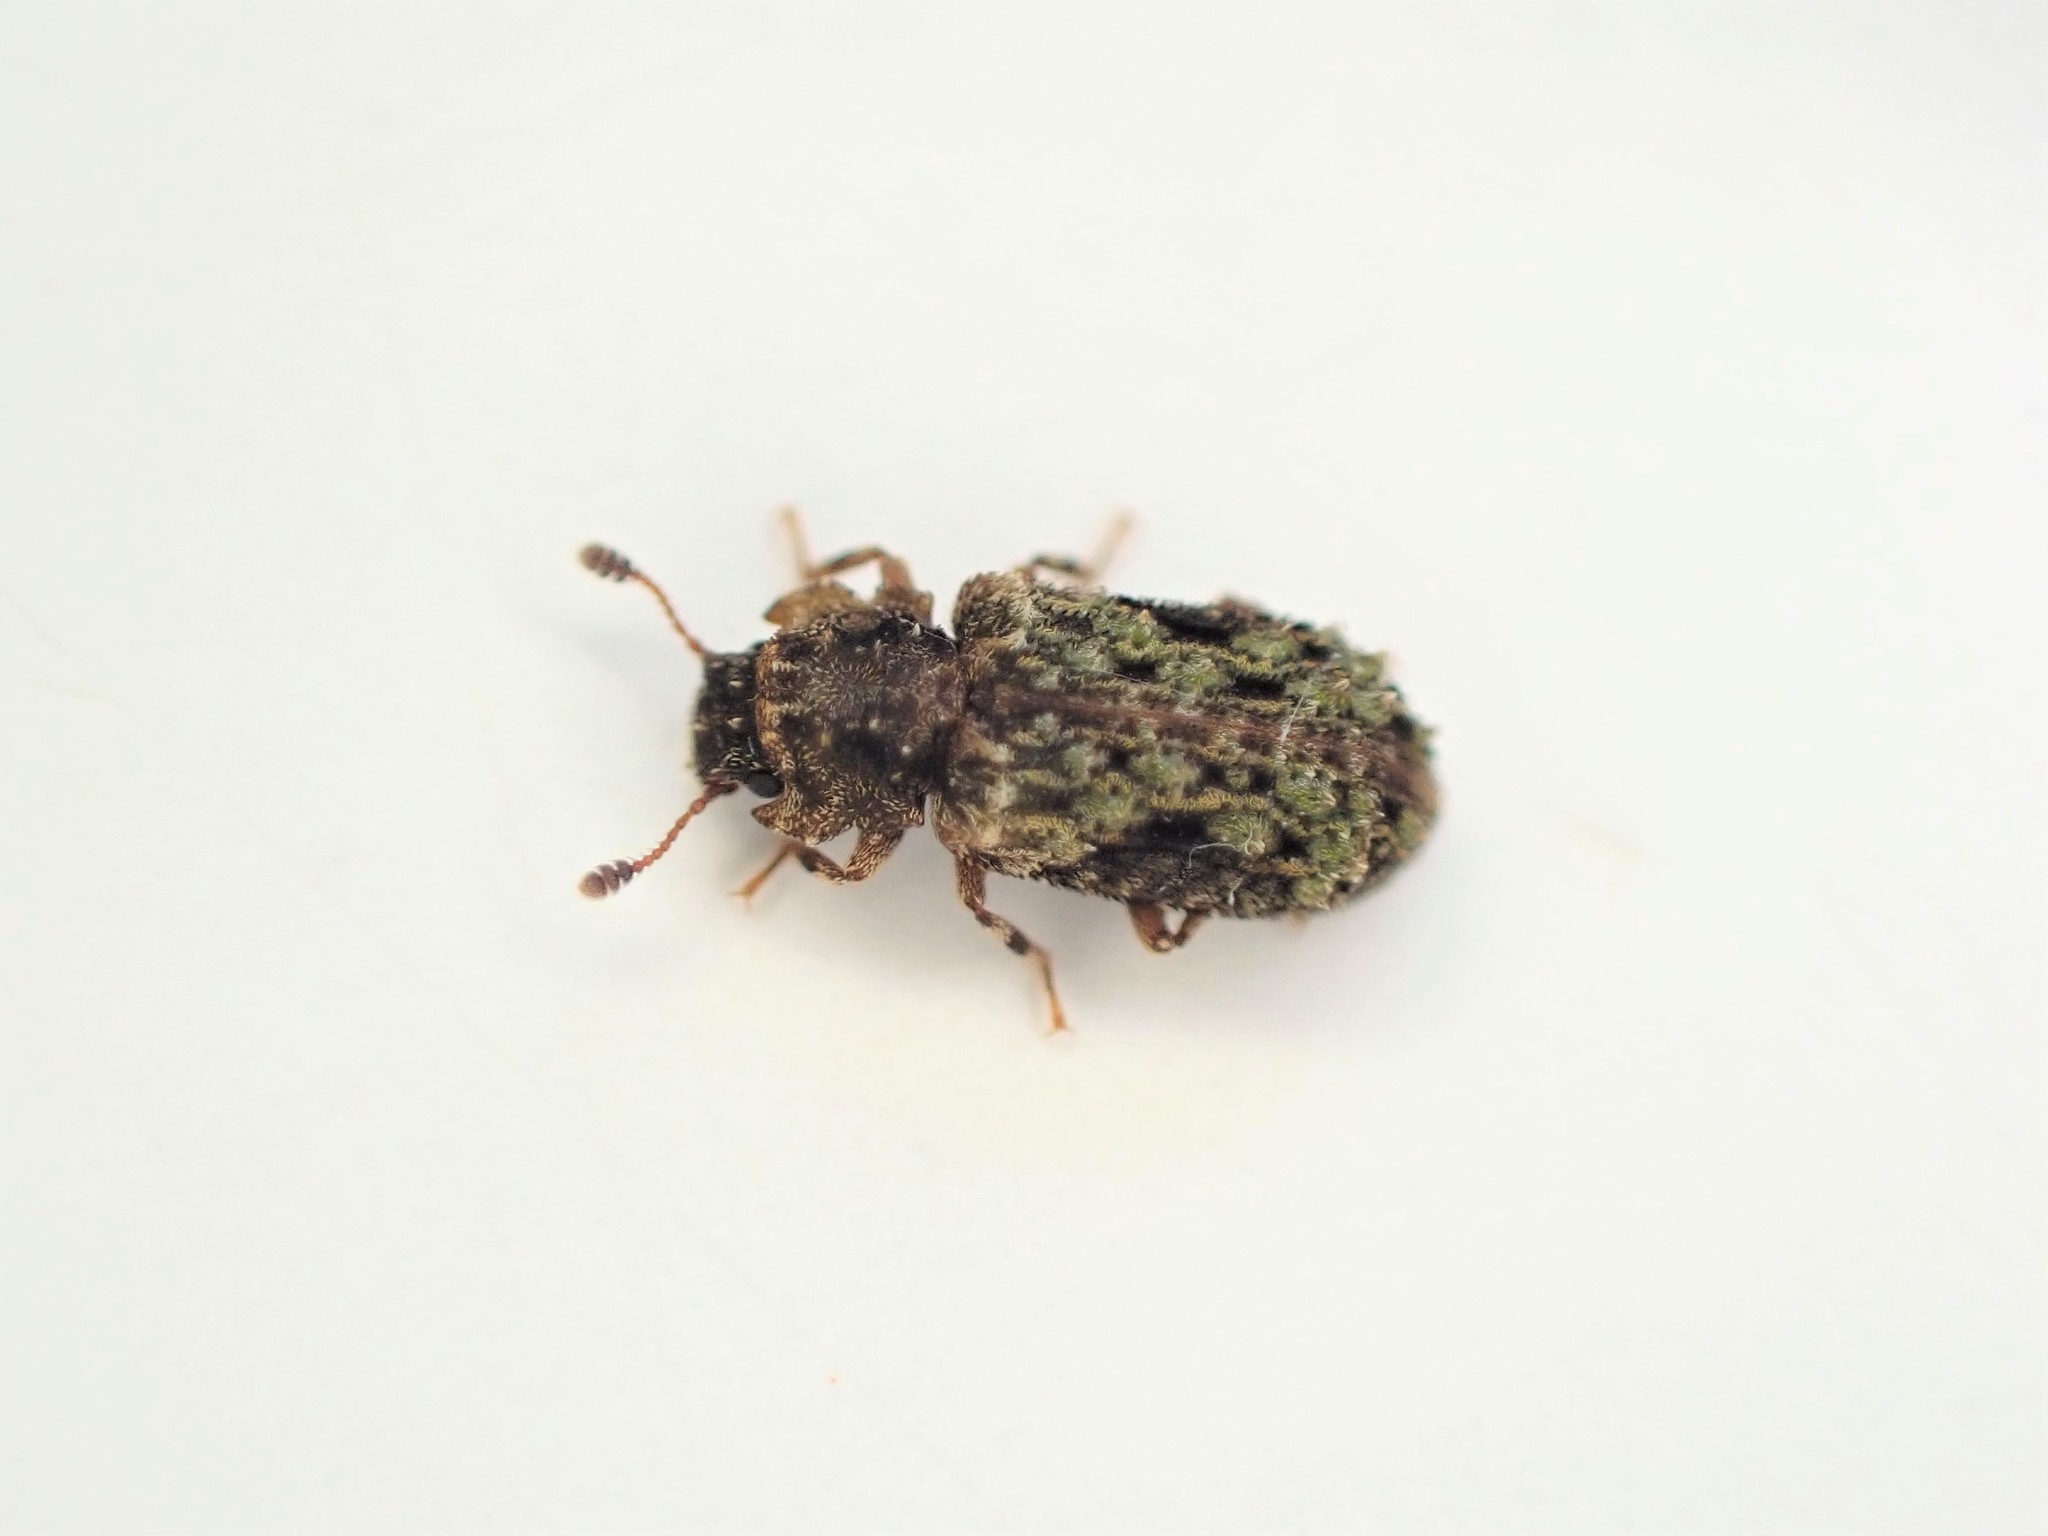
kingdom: Animalia
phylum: Arthropoda
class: Insecta
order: Coleoptera
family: Zopheridae
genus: Pristoderus
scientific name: Pristoderus
